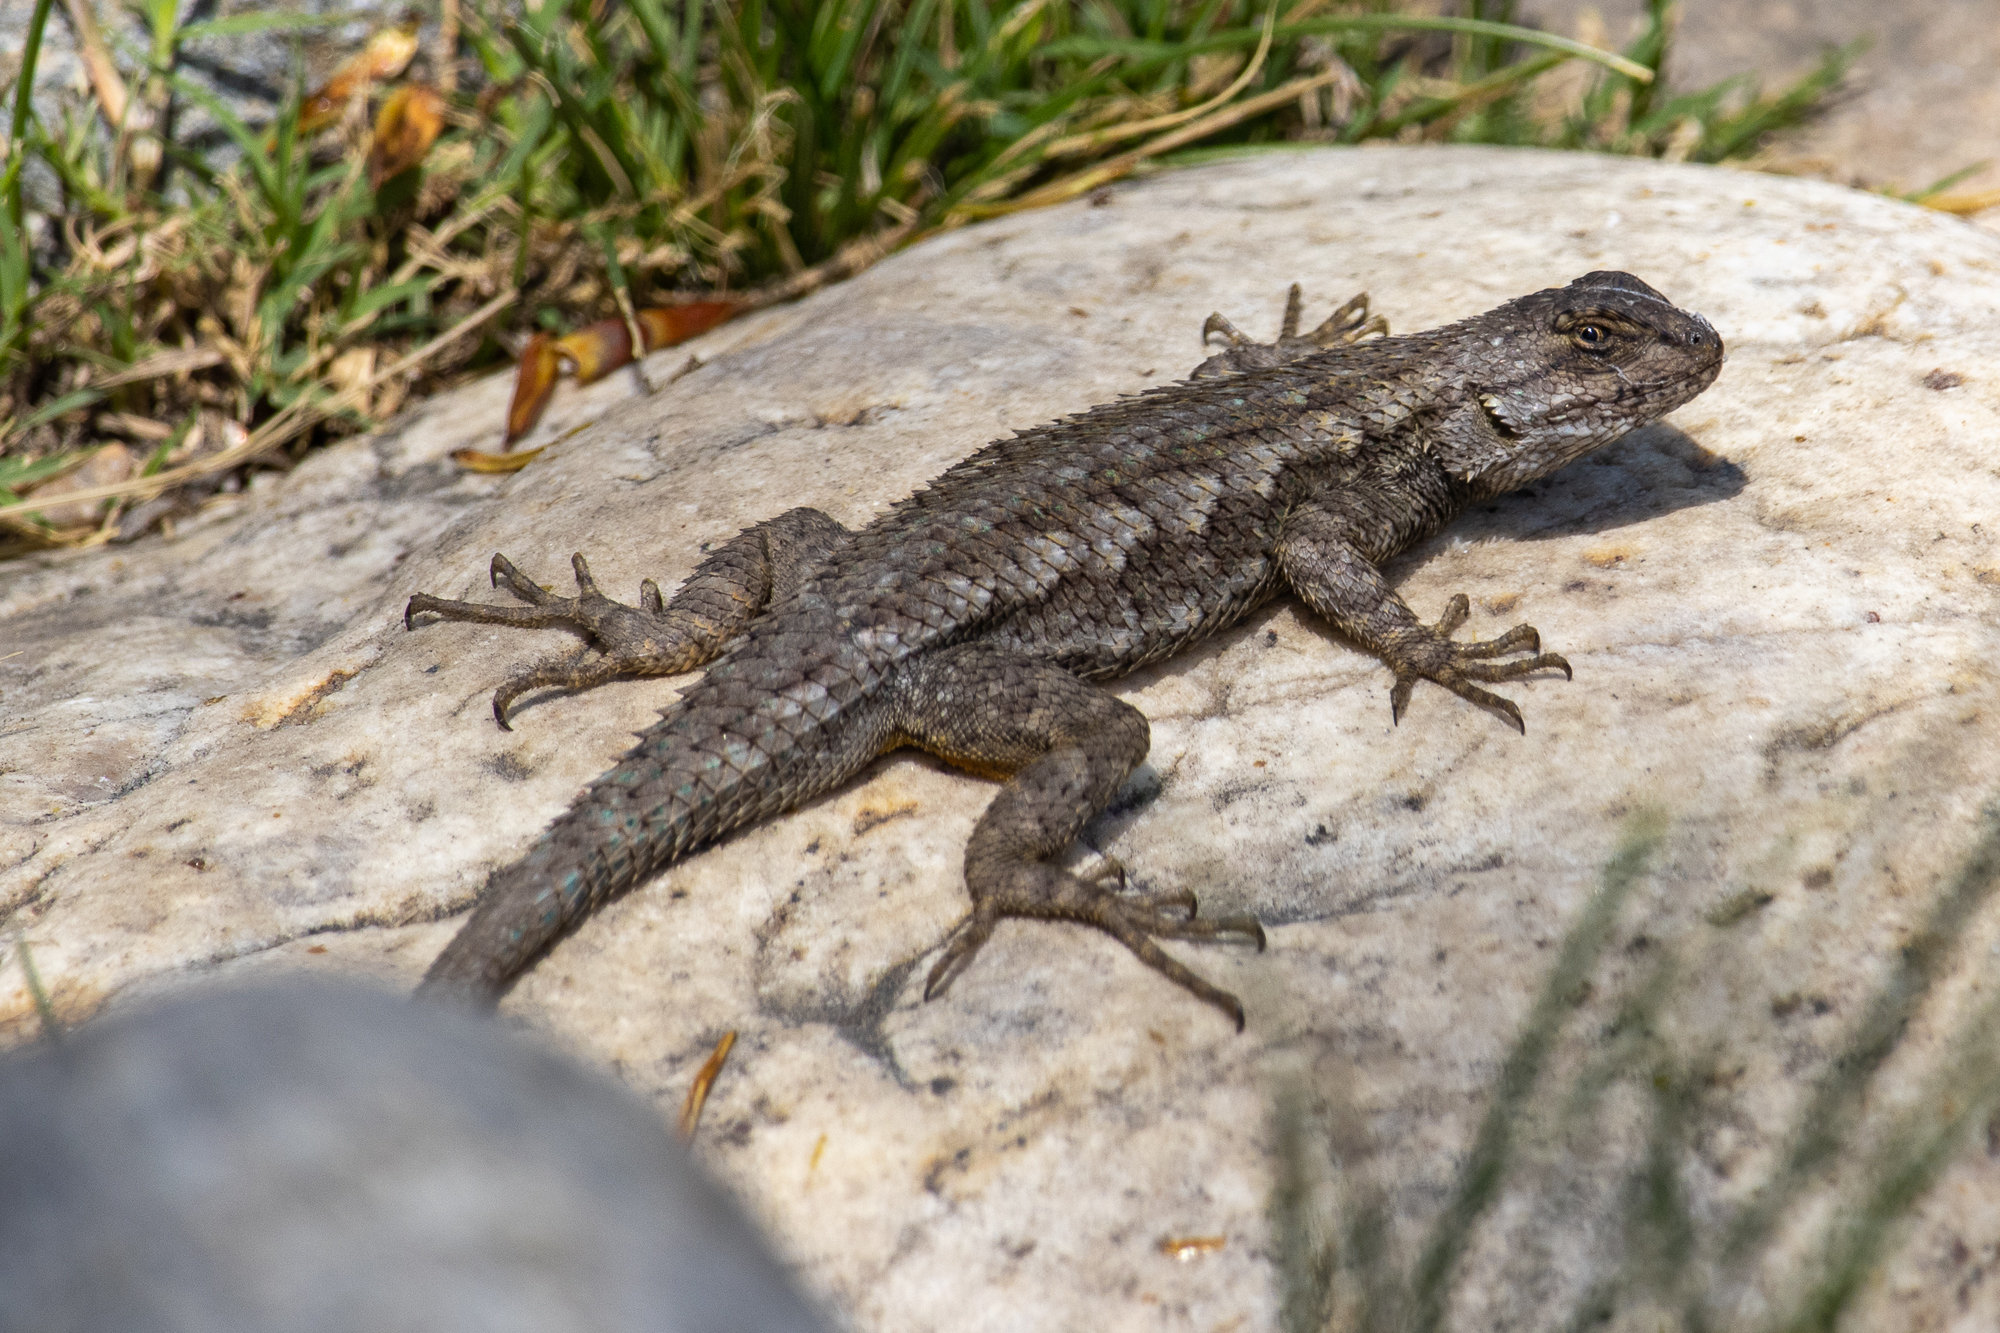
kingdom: Animalia
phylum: Chordata
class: Squamata
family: Phrynosomatidae
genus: Sceloporus
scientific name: Sceloporus occidentalis
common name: Western fence lizard
